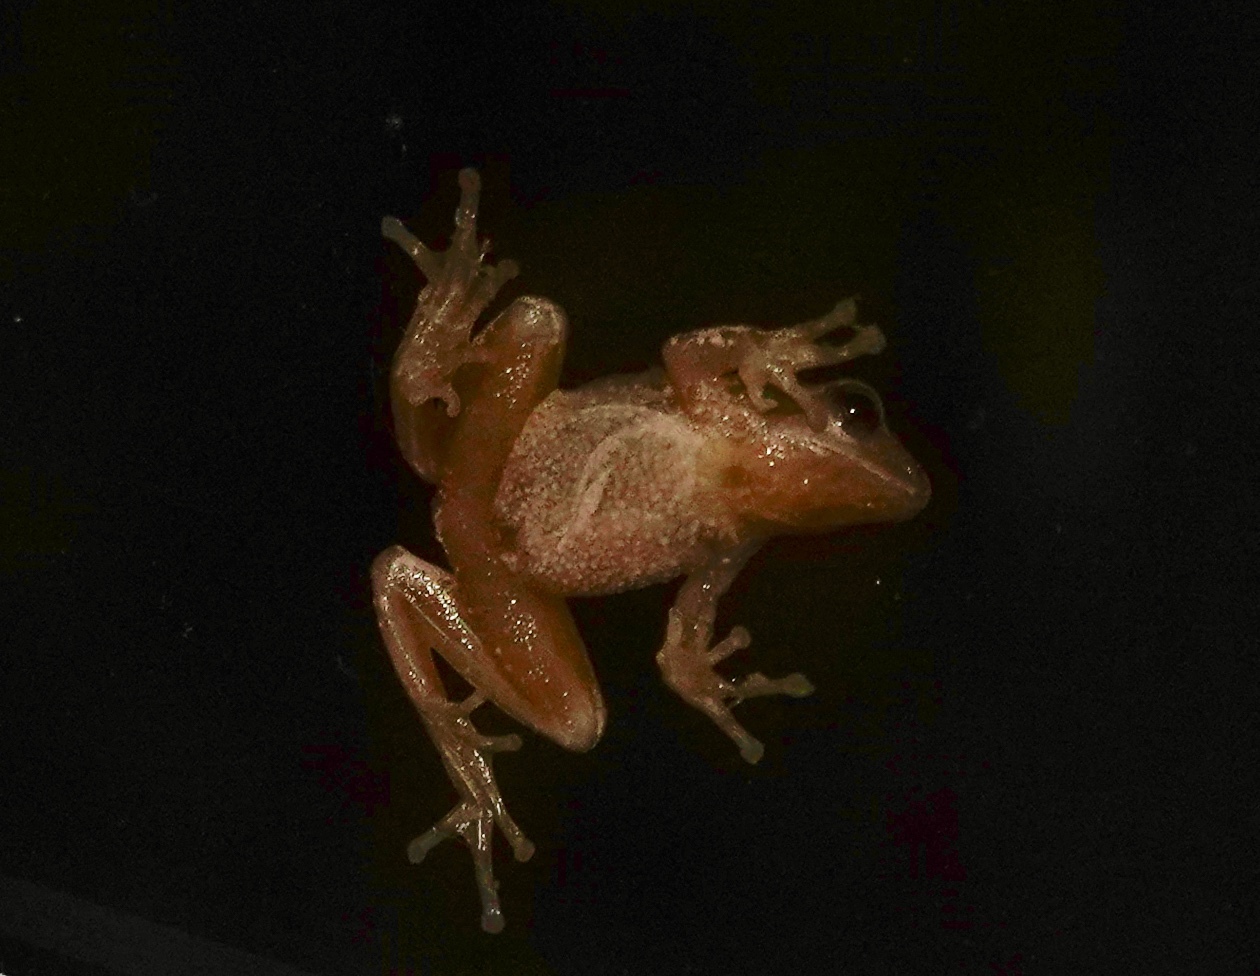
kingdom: Animalia
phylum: Chordata
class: Amphibia
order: Anura
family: Hylidae
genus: Pseudacris
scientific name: Pseudacris crucifer
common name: Spring peeper
